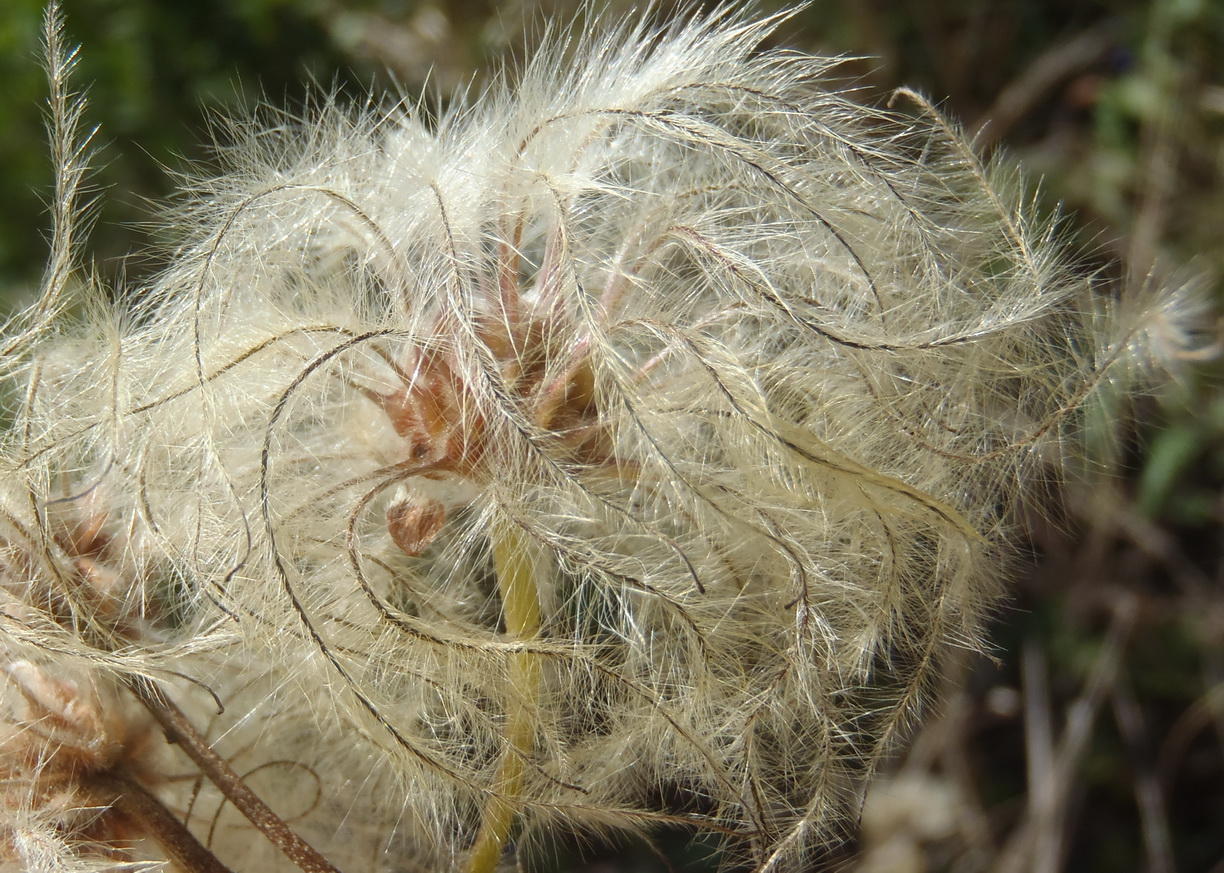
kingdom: Plantae
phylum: Tracheophyta
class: Magnoliopsida
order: Ranunculales
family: Ranunculaceae
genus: Clematis
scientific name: Clematis brachiata
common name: Traveler's-joy
